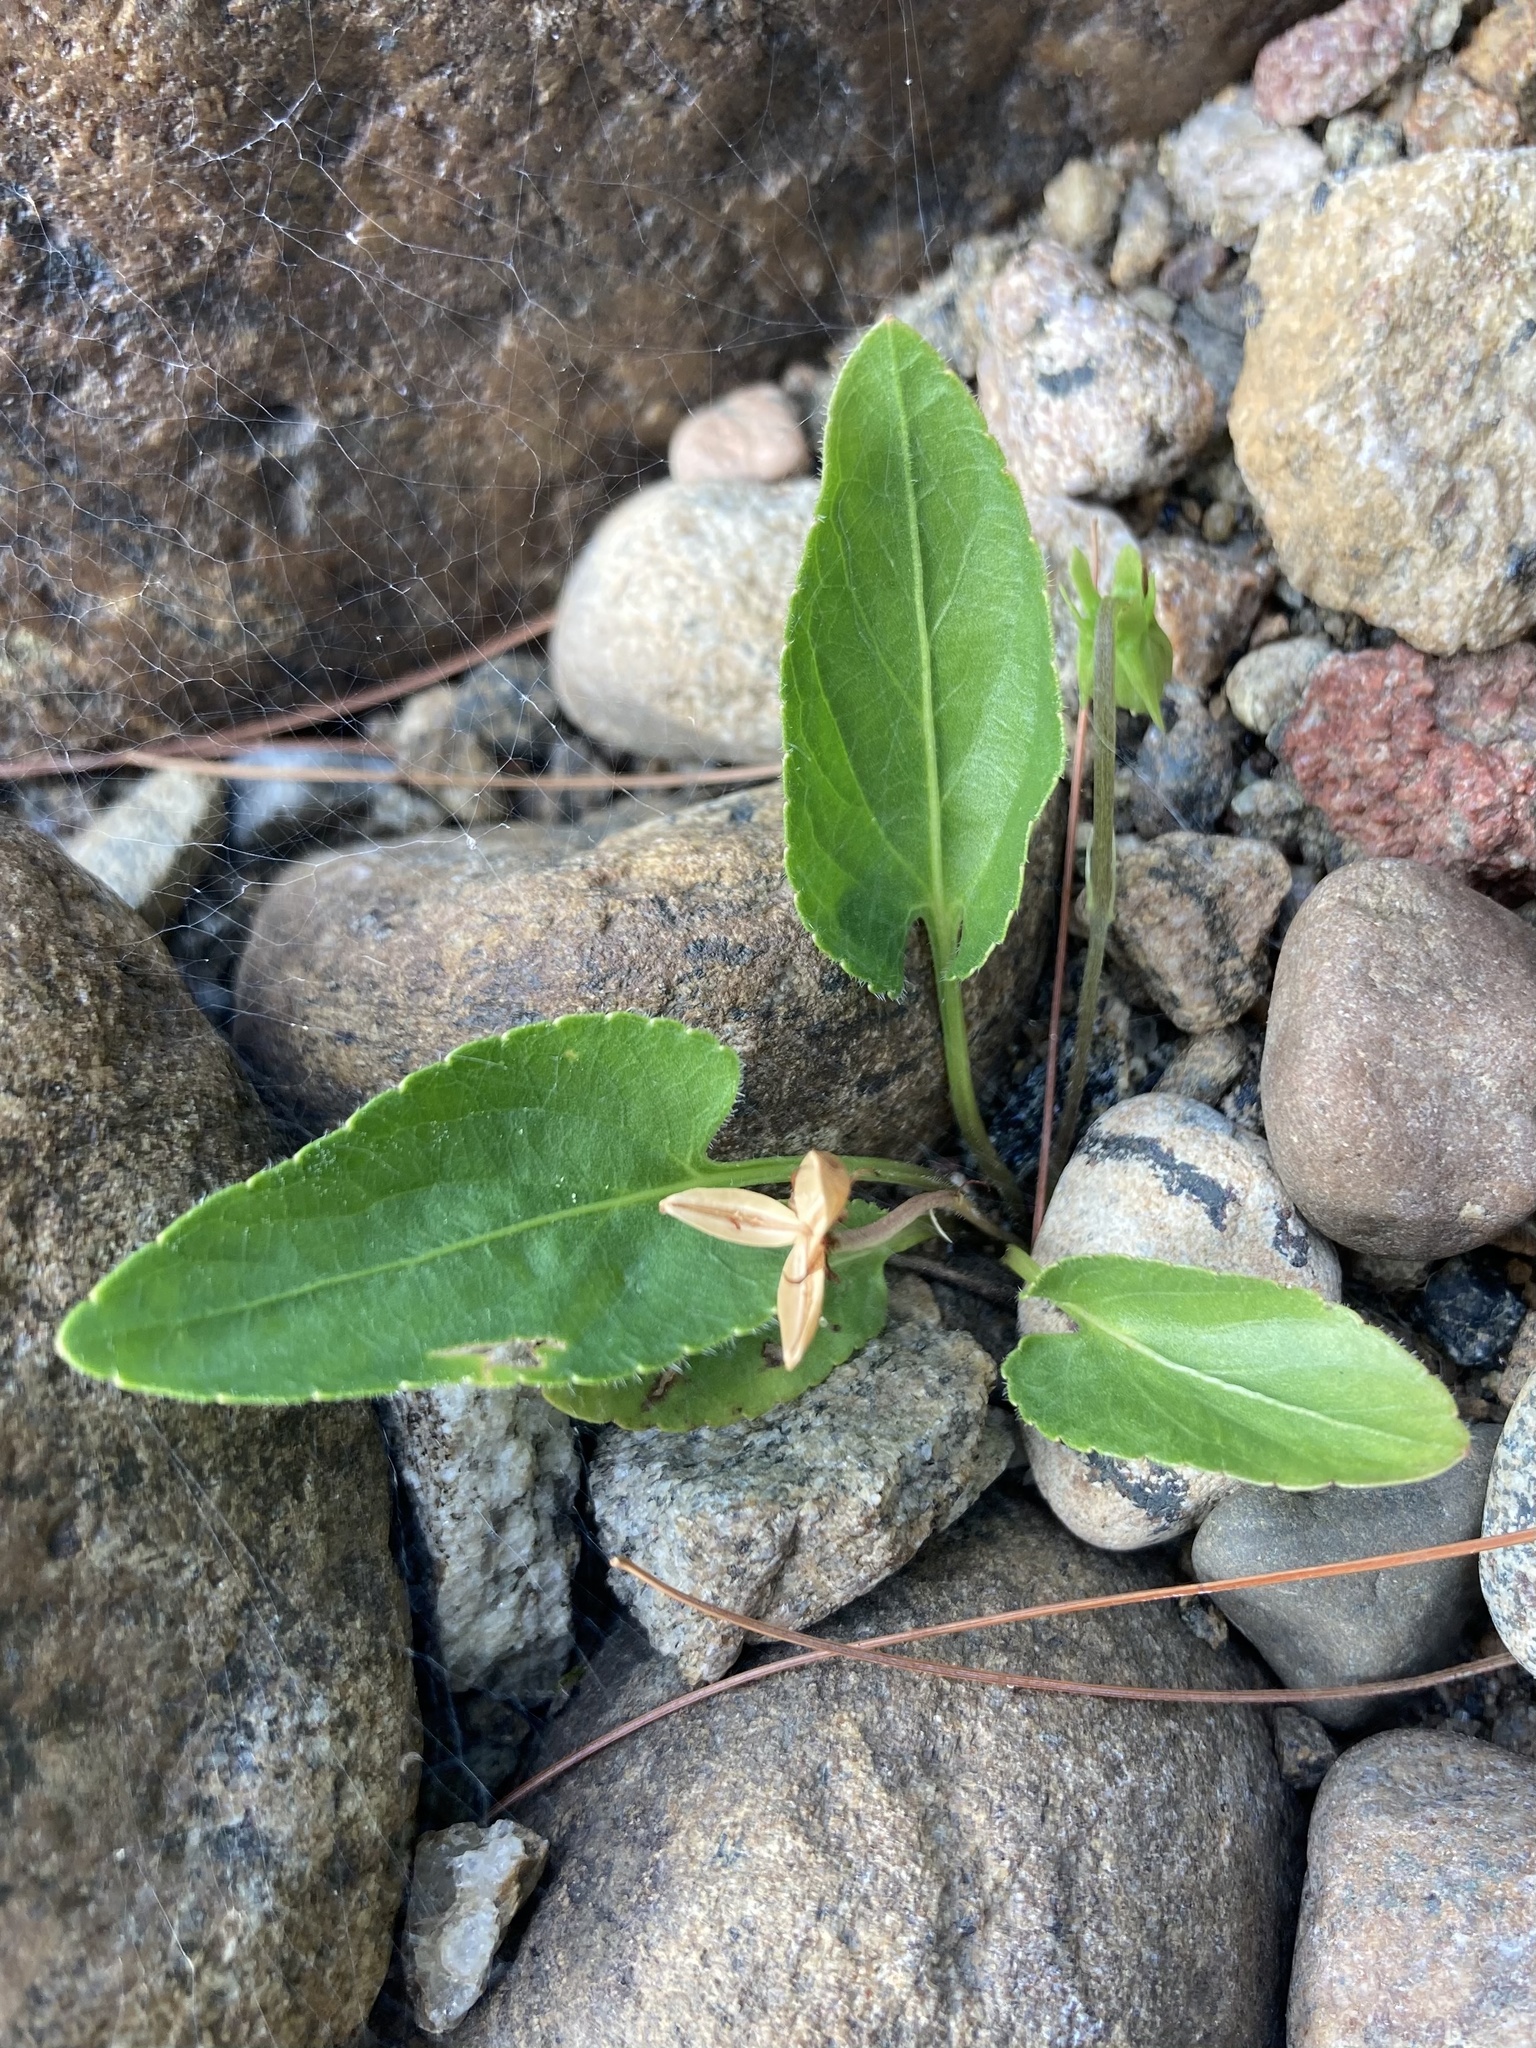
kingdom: Plantae
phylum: Tracheophyta
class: Magnoliopsida
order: Malpighiales
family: Violaceae
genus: Viola
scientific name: Viola fimbriatula
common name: Sand violet
